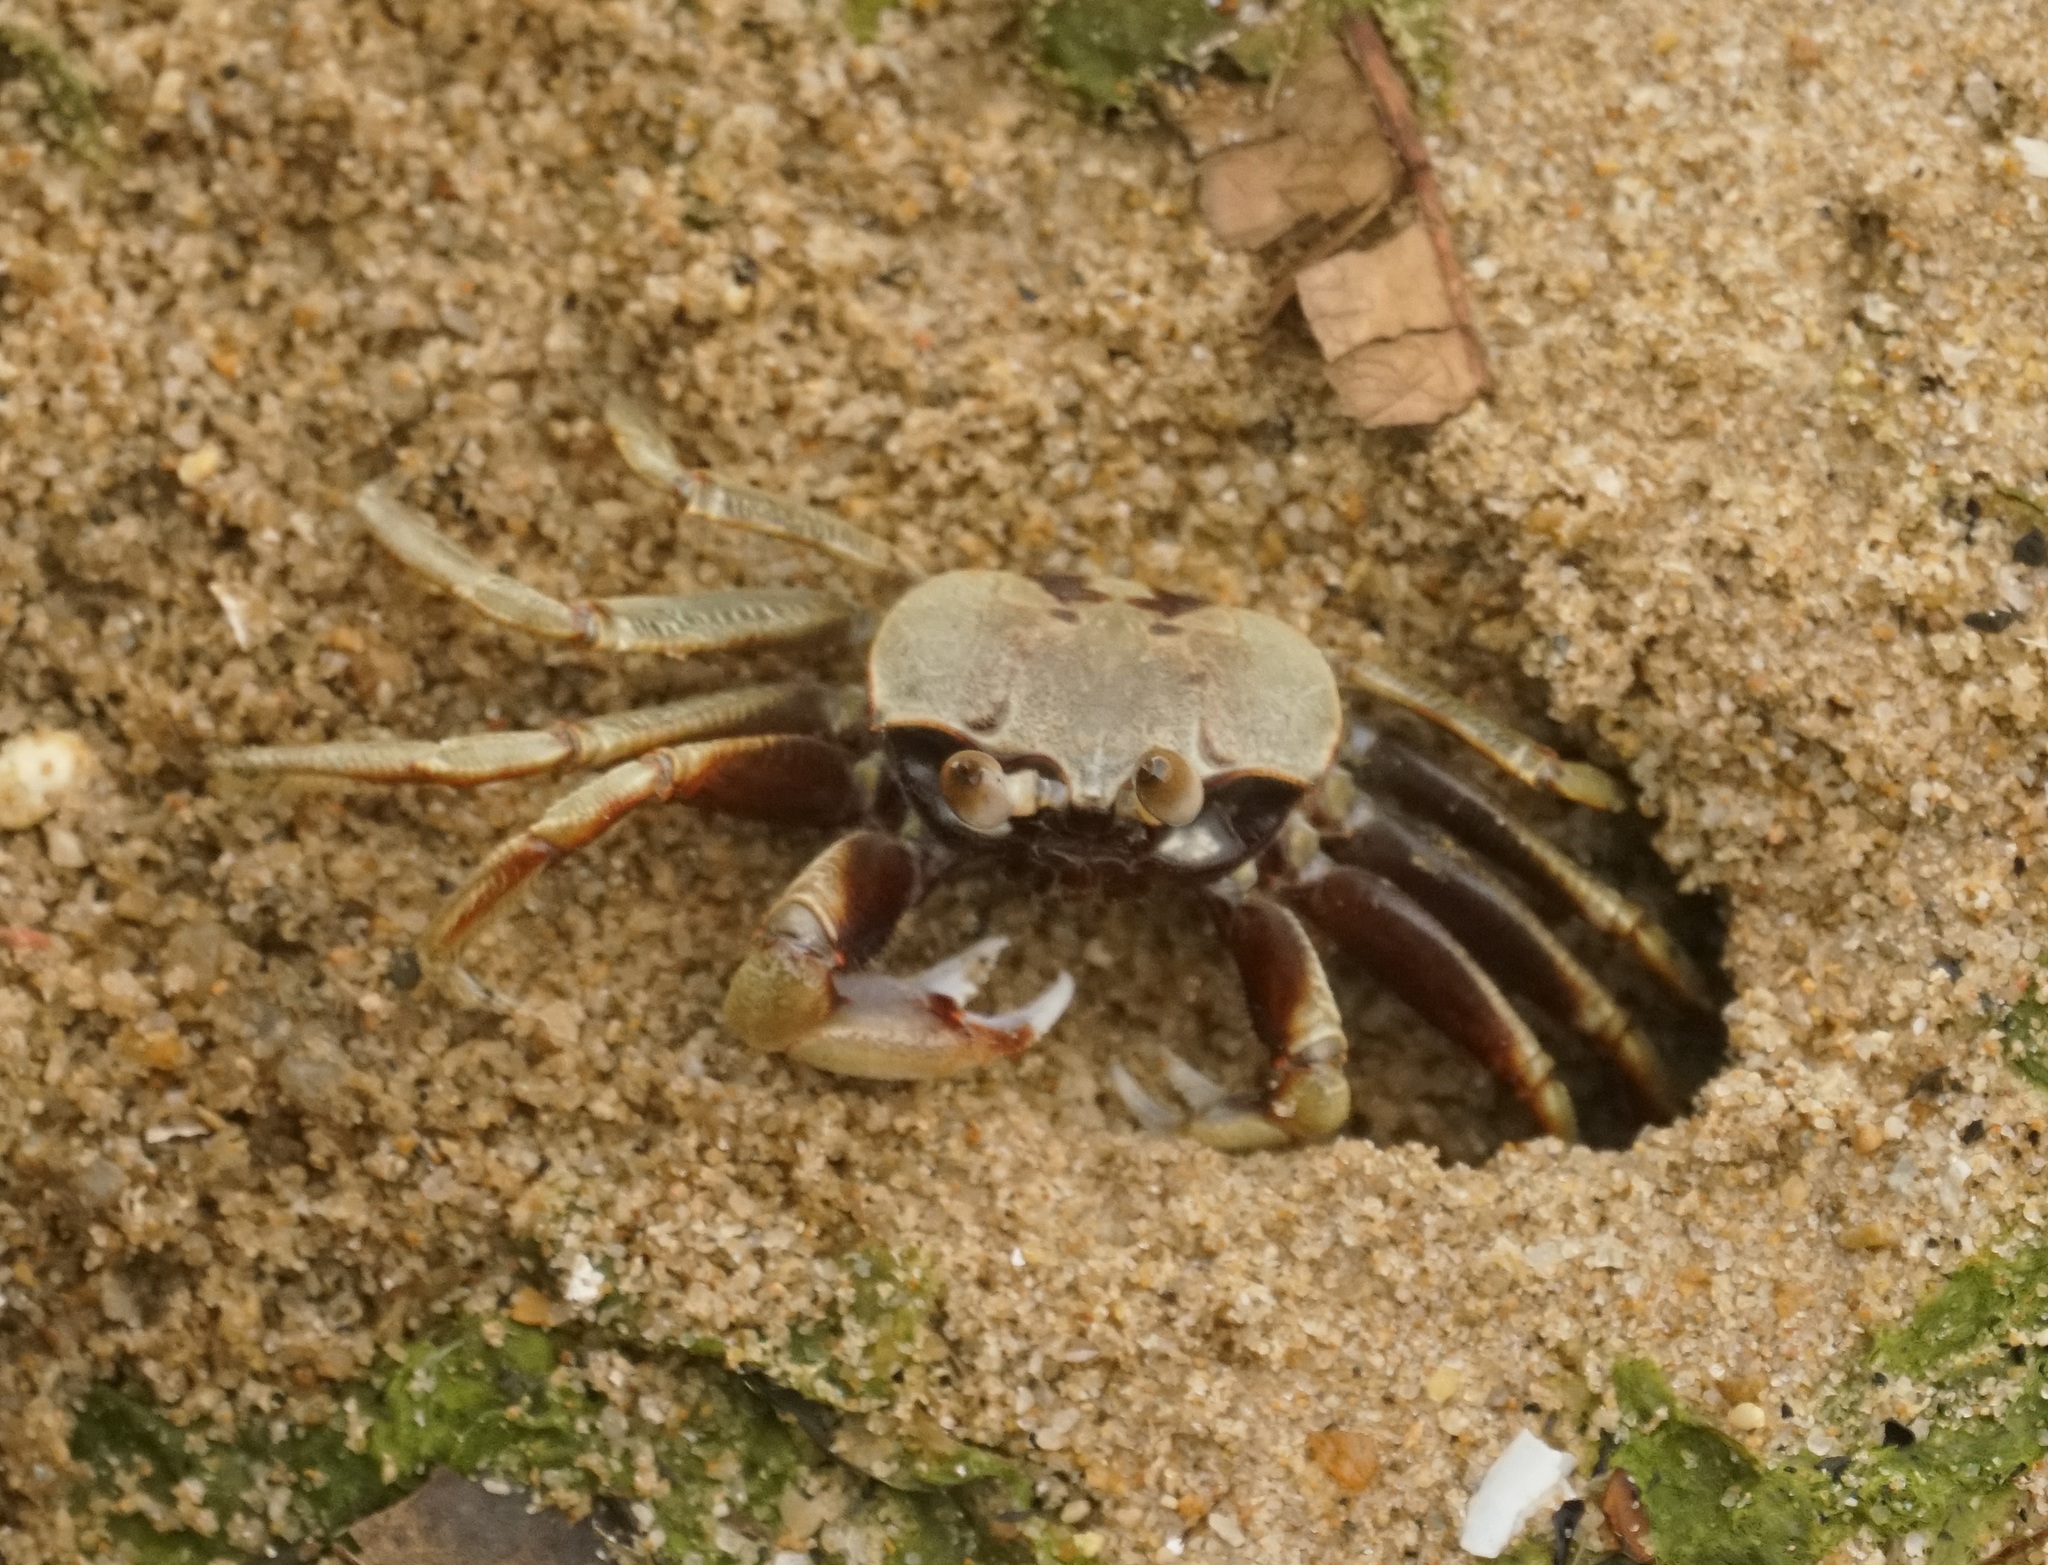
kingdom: Animalia
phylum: Arthropoda
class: Malacostraca
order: Decapoda
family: Ocypodidae
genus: Ocypode
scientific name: Ocypode ceratophthalmus
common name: Indo-pacific ghost crab
